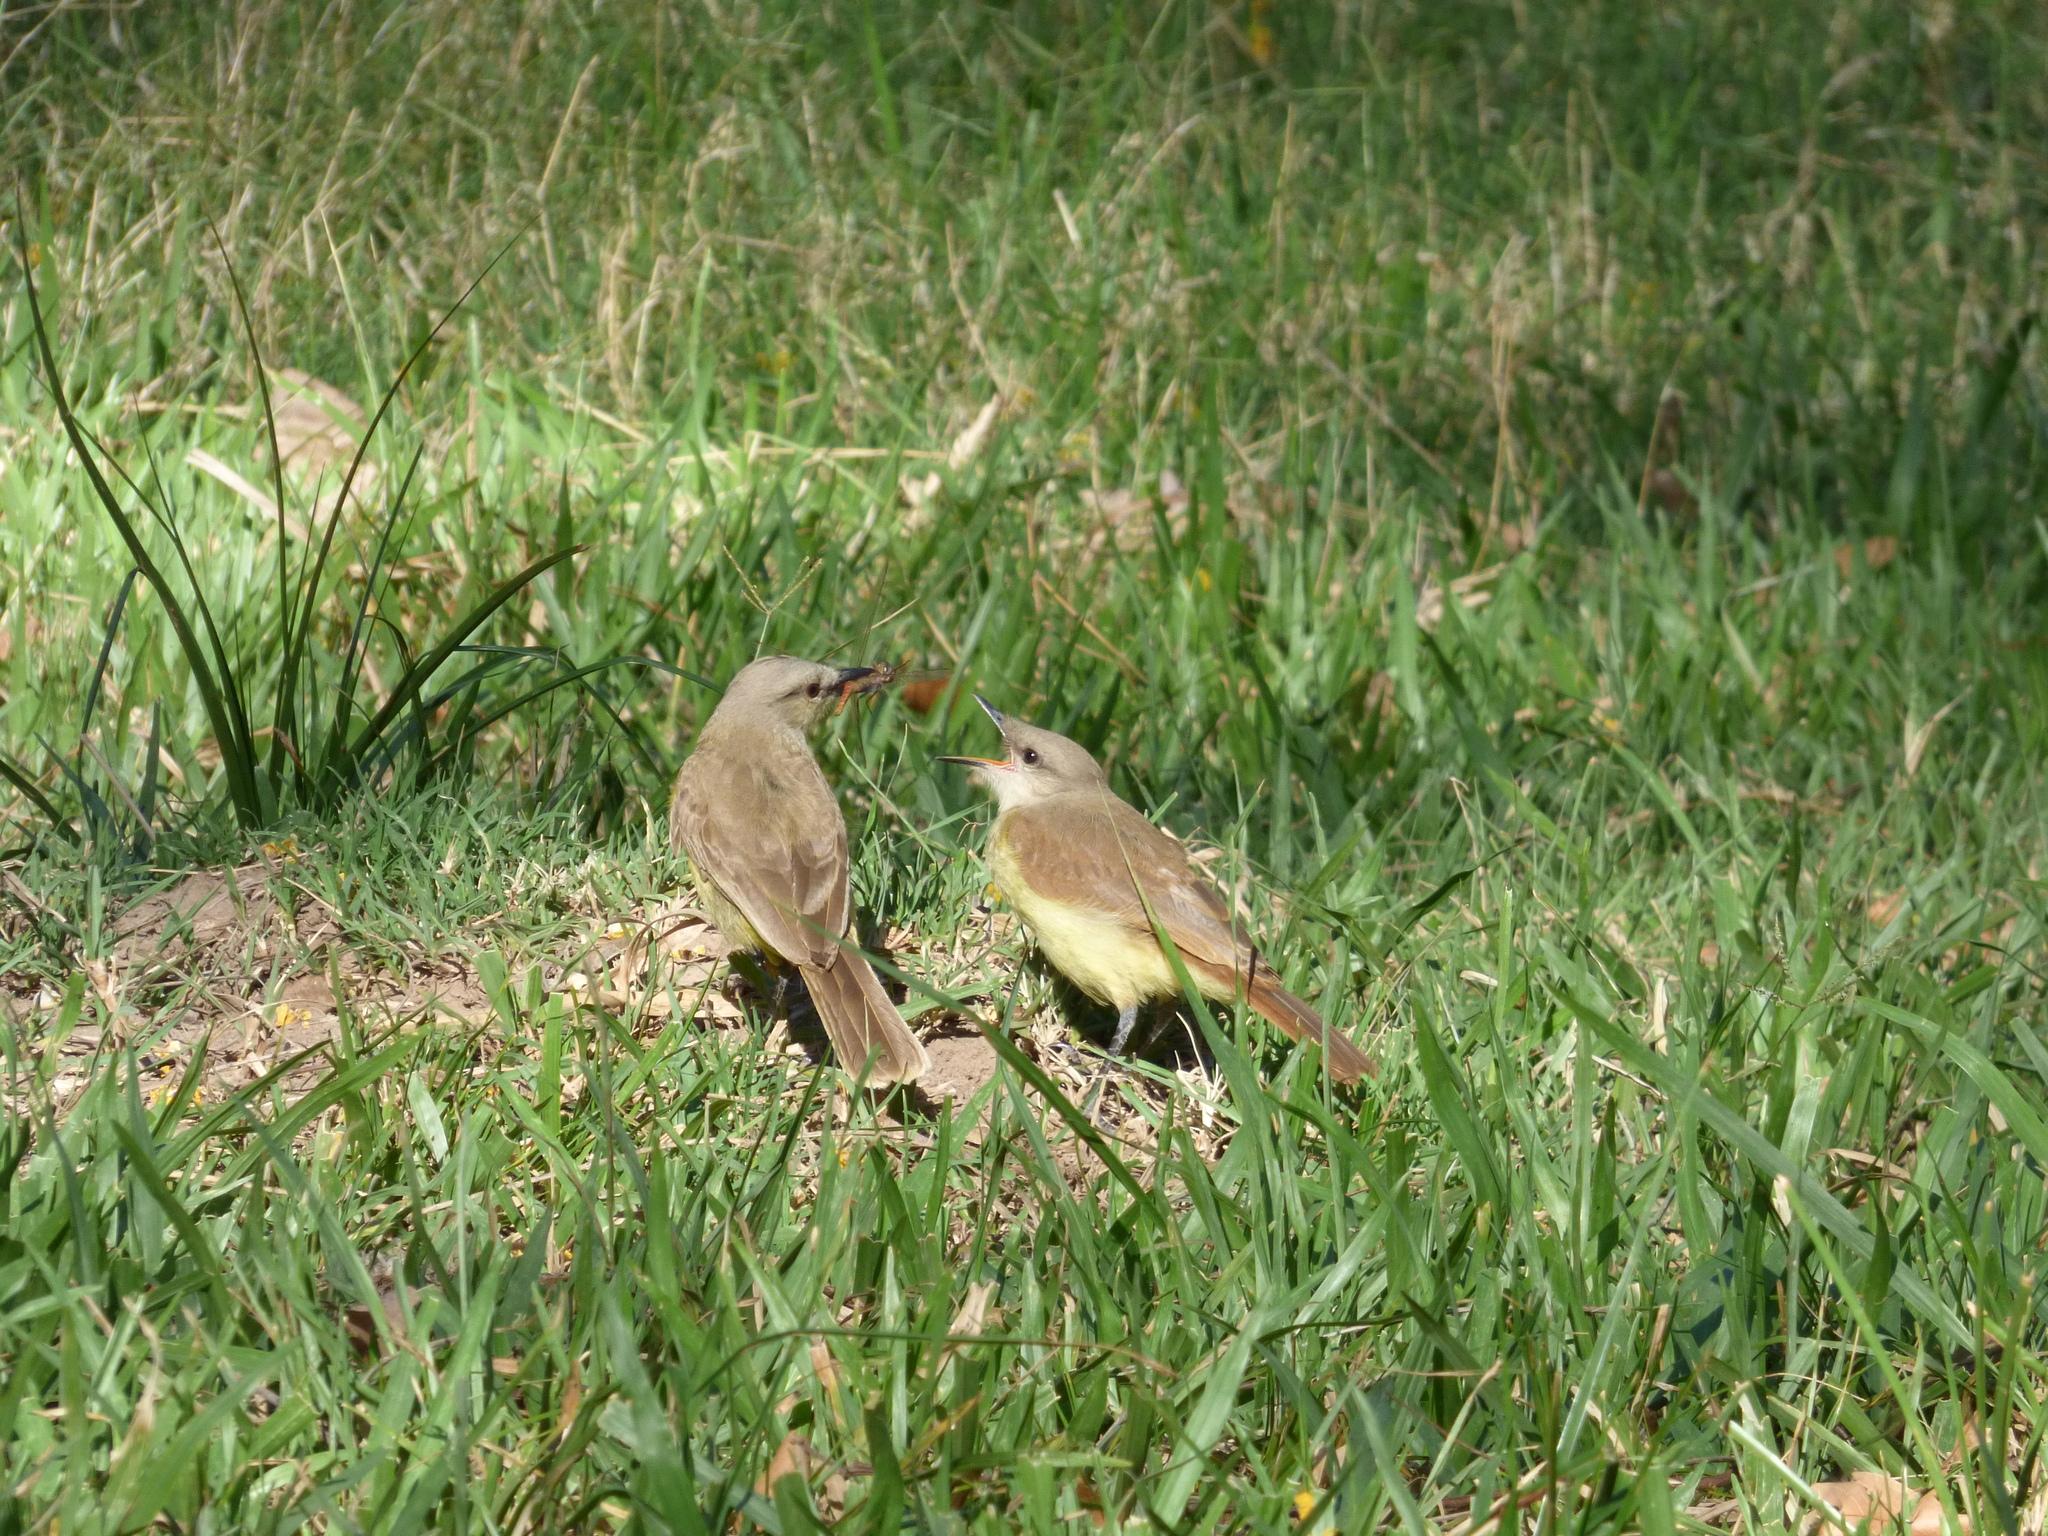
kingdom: Animalia
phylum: Chordata
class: Aves
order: Passeriformes
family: Tyrannidae
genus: Machetornis
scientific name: Machetornis rixosa
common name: Cattle tyrant
